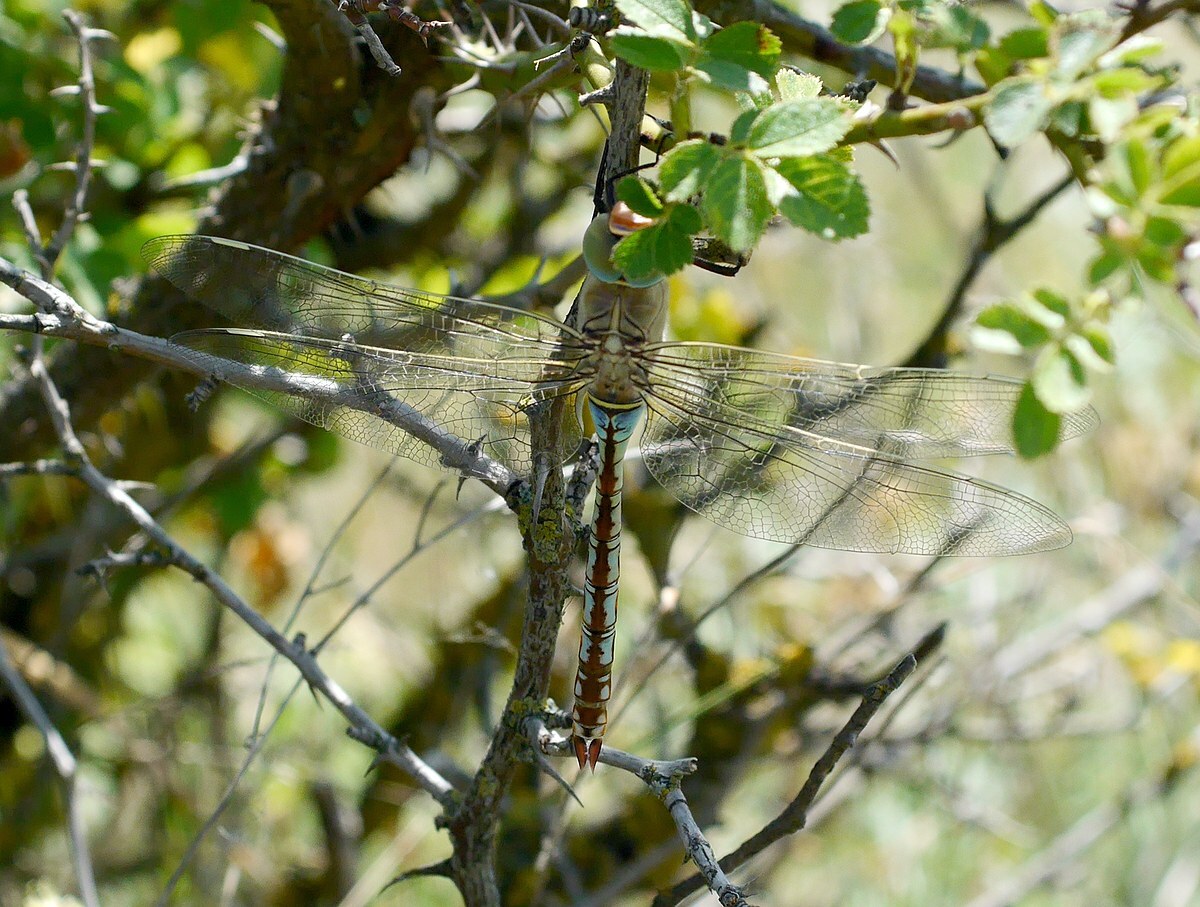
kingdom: Animalia
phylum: Arthropoda
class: Insecta
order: Odonata
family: Aeshnidae
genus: Anax
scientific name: Anax parthenope
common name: Lesser emperor
